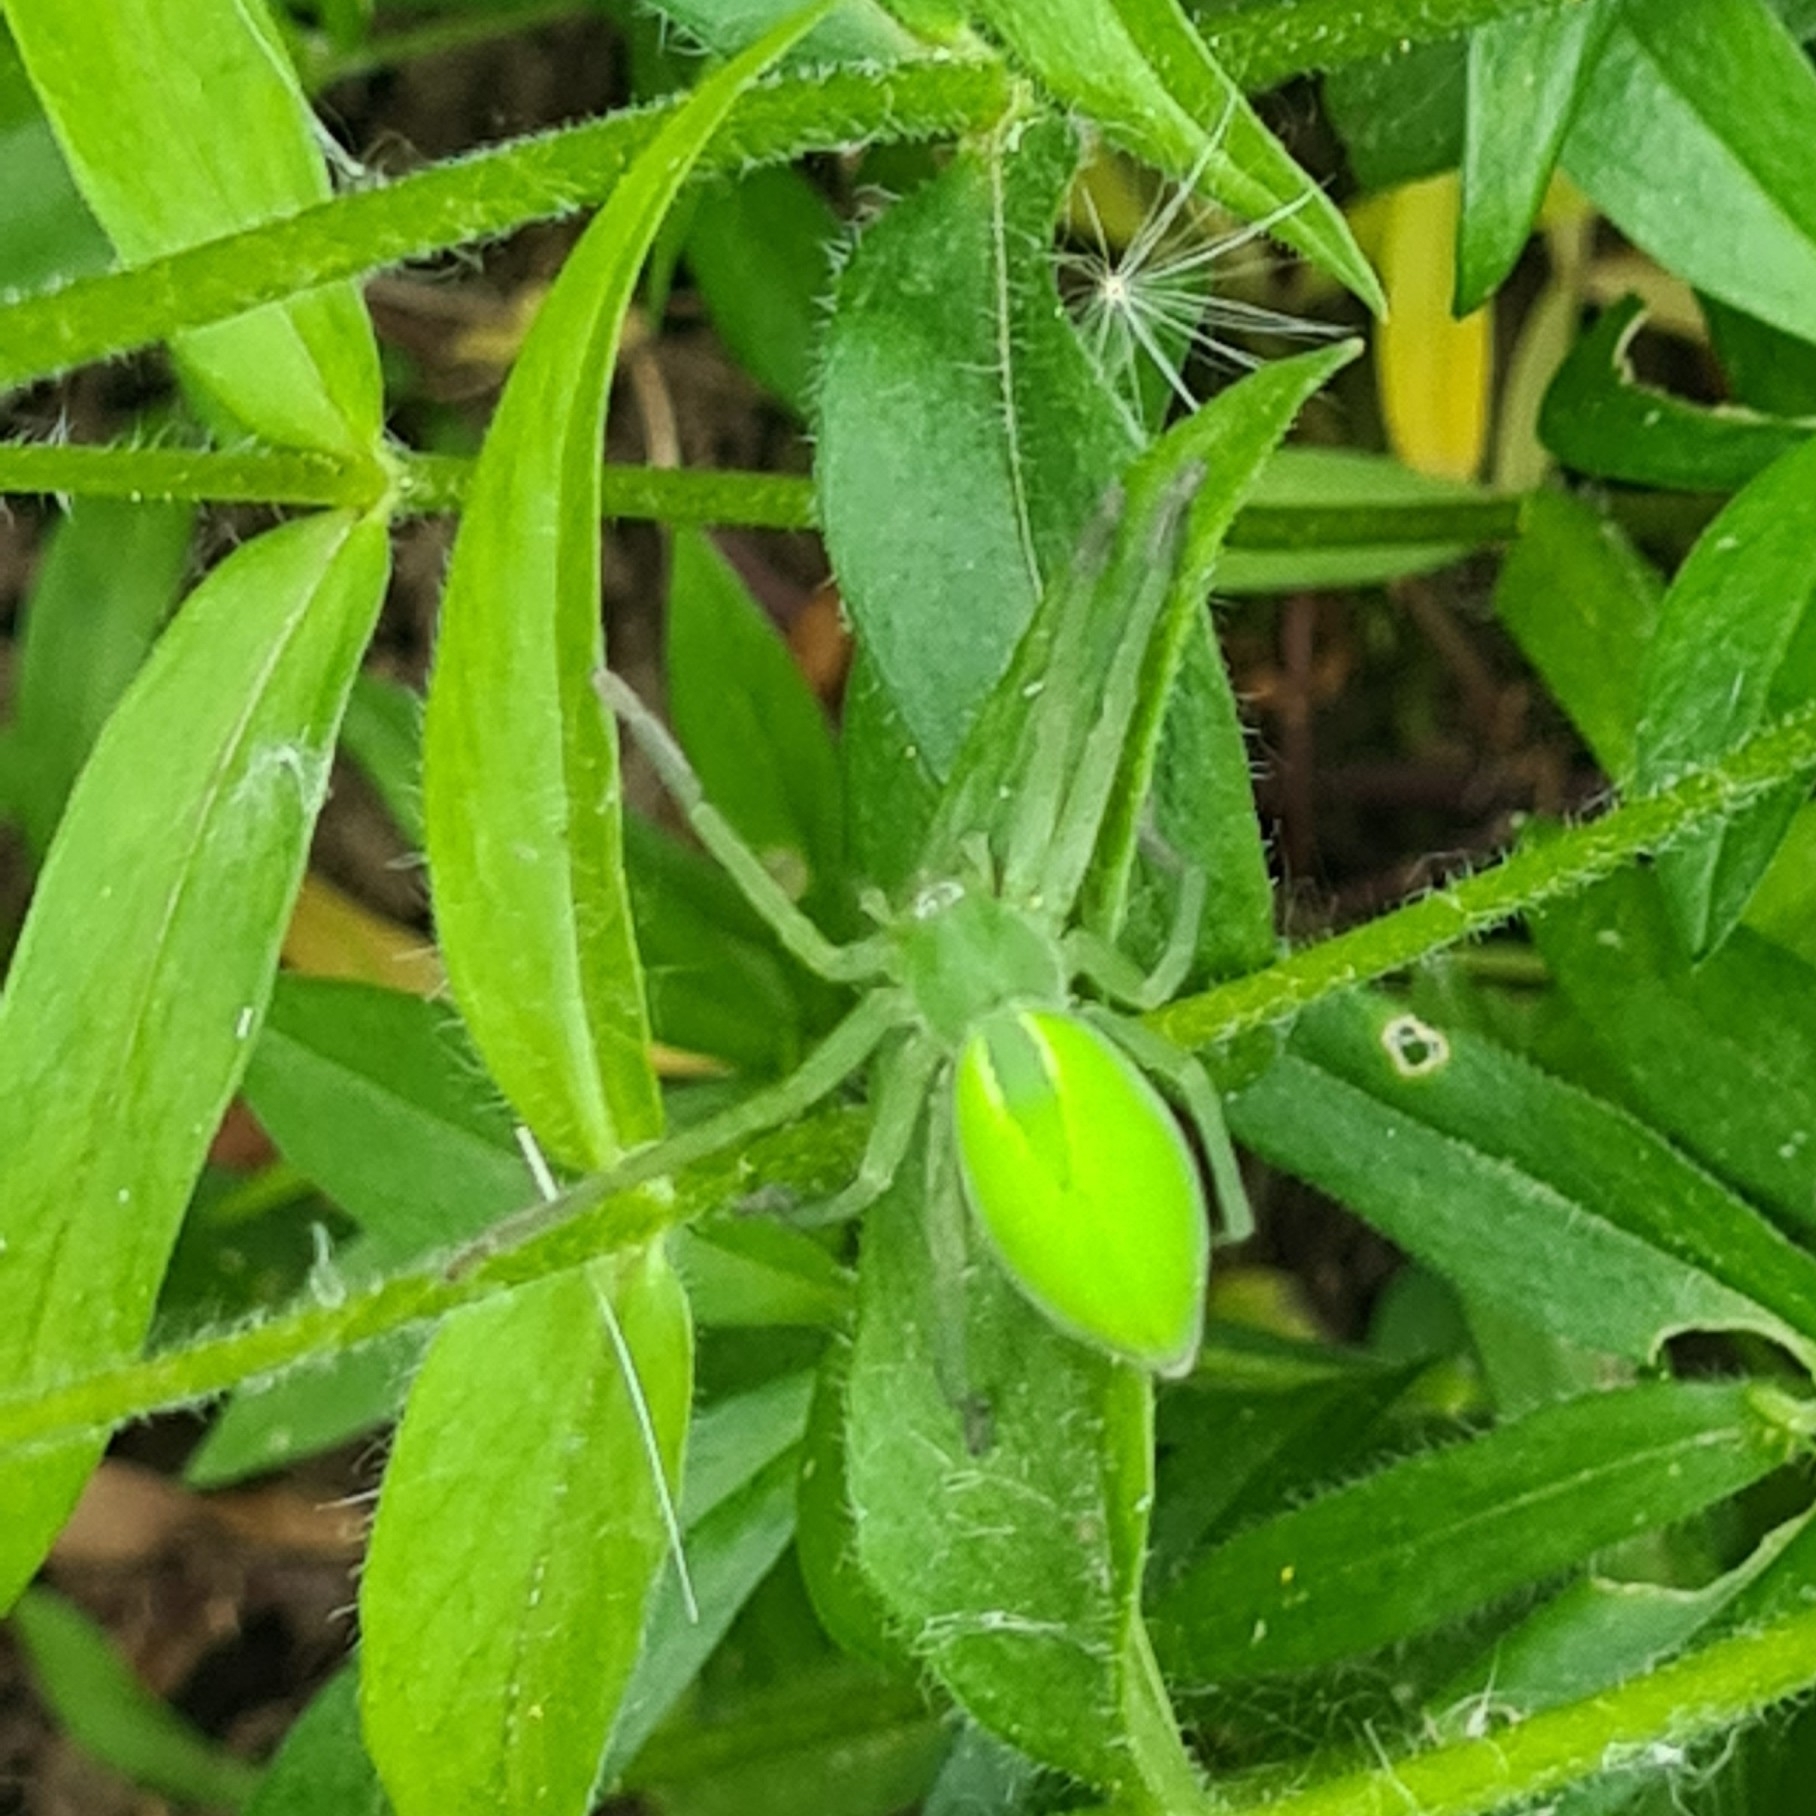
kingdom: Animalia
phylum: Arthropoda
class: Arachnida
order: Araneae
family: Sparassidae
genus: Micrommata
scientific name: Micrommata virescens
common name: Green spider
